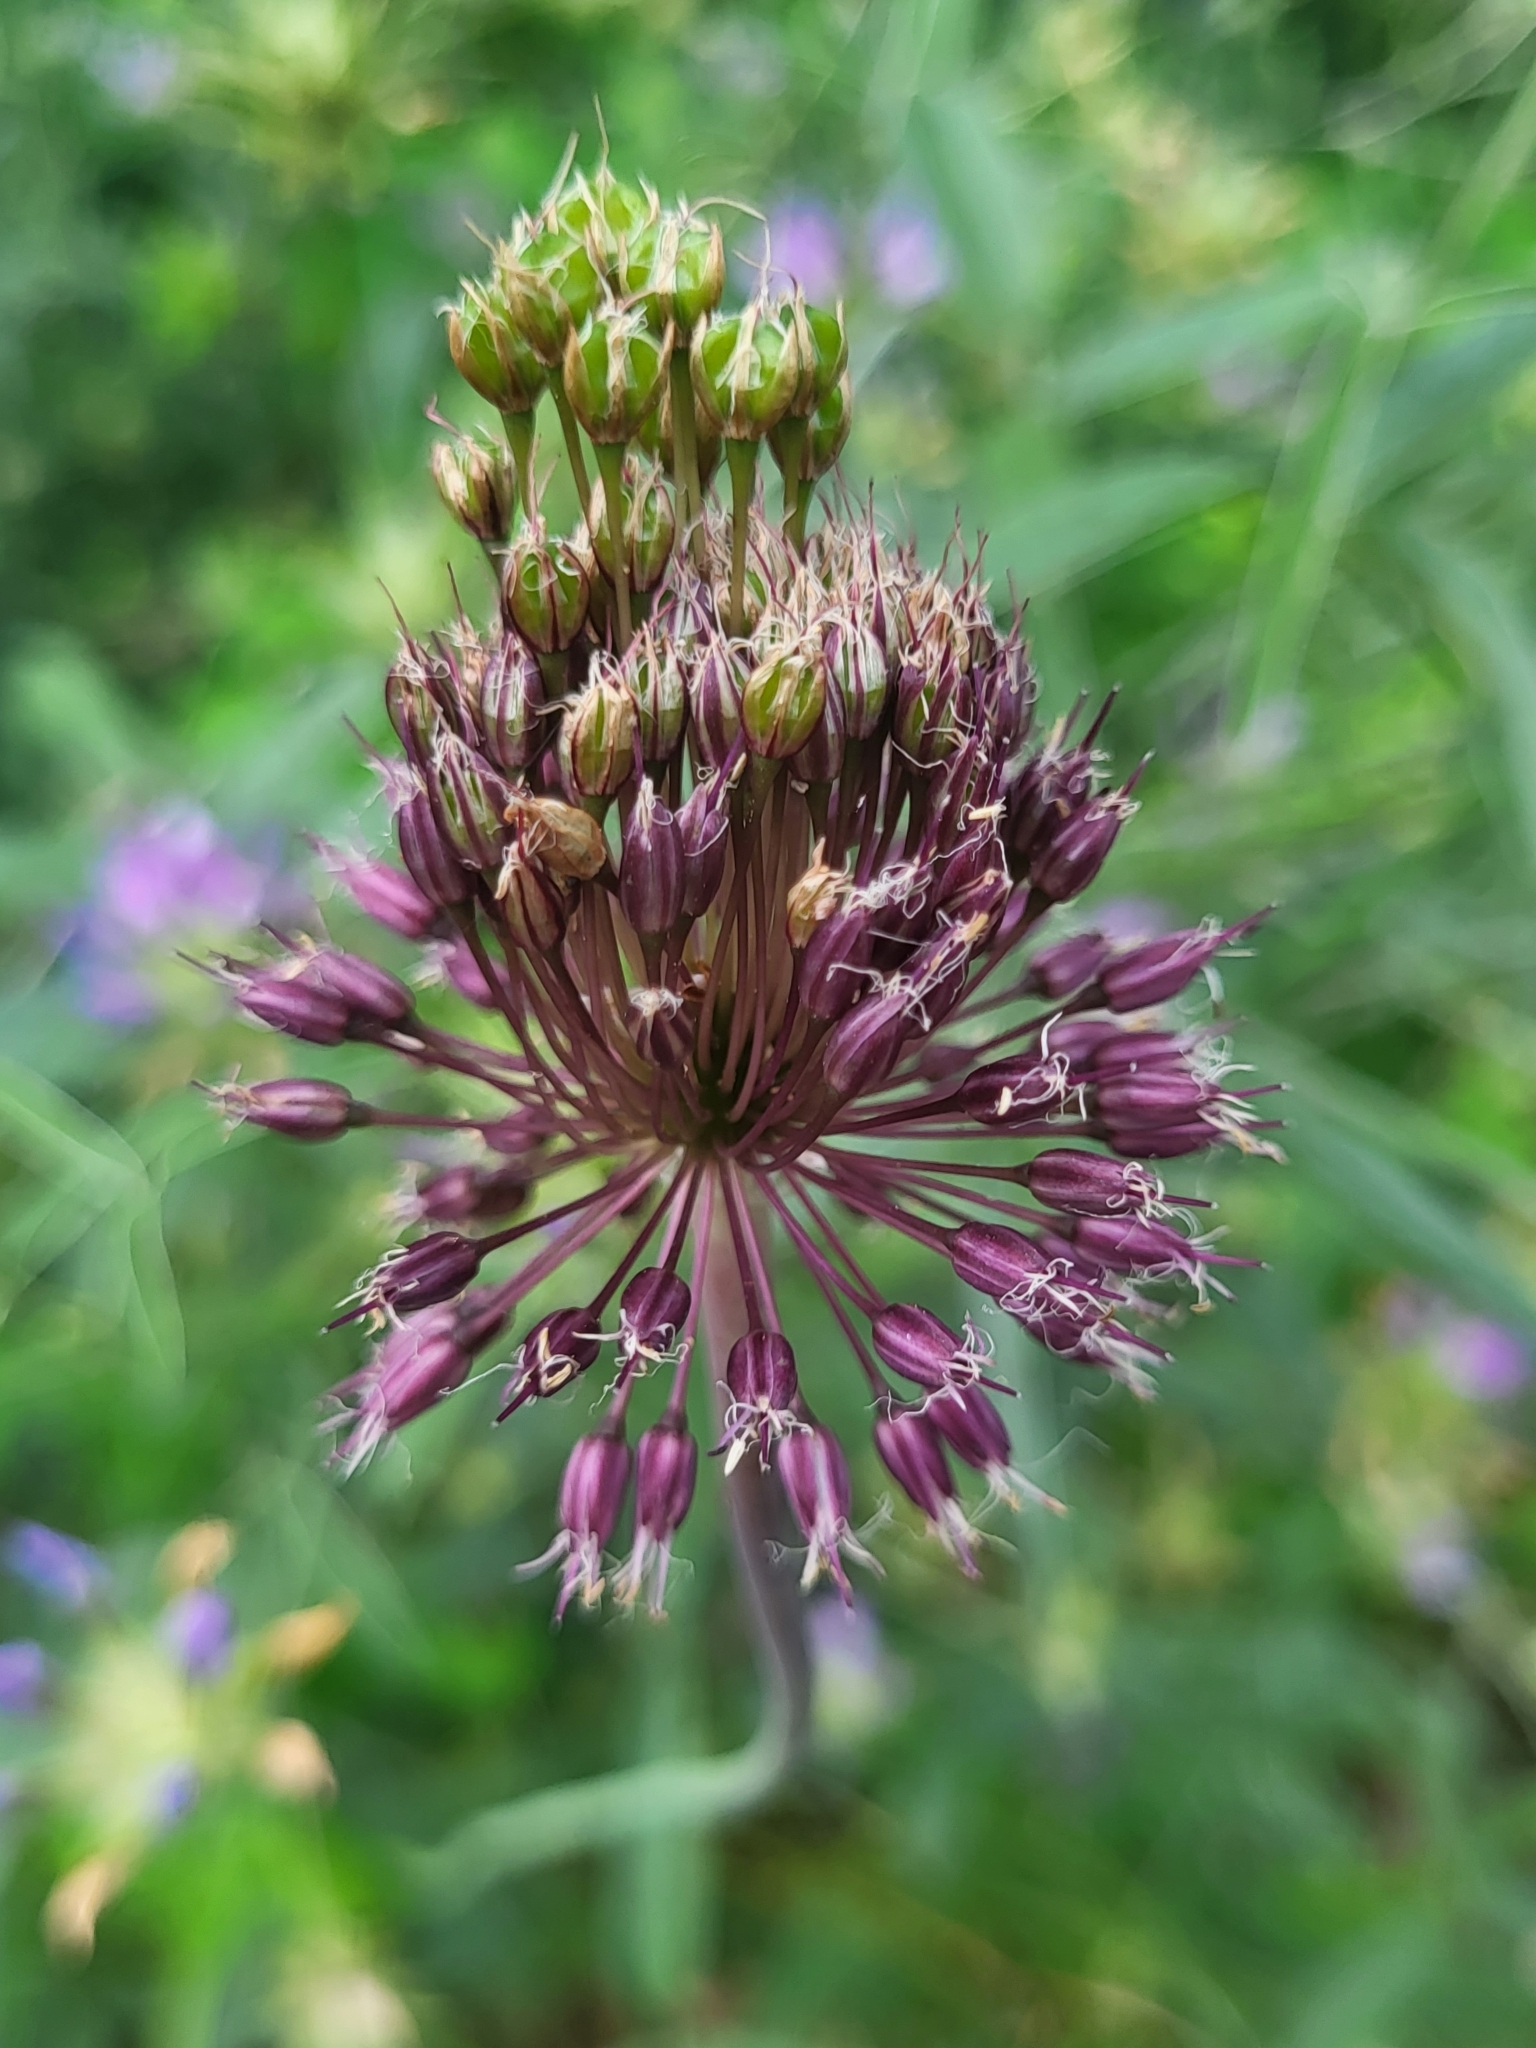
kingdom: Plantae
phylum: Tracheophyta
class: Liliopsida
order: Asparagales
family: Amaryllidaceae
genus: Allium
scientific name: Allium amethystinum
